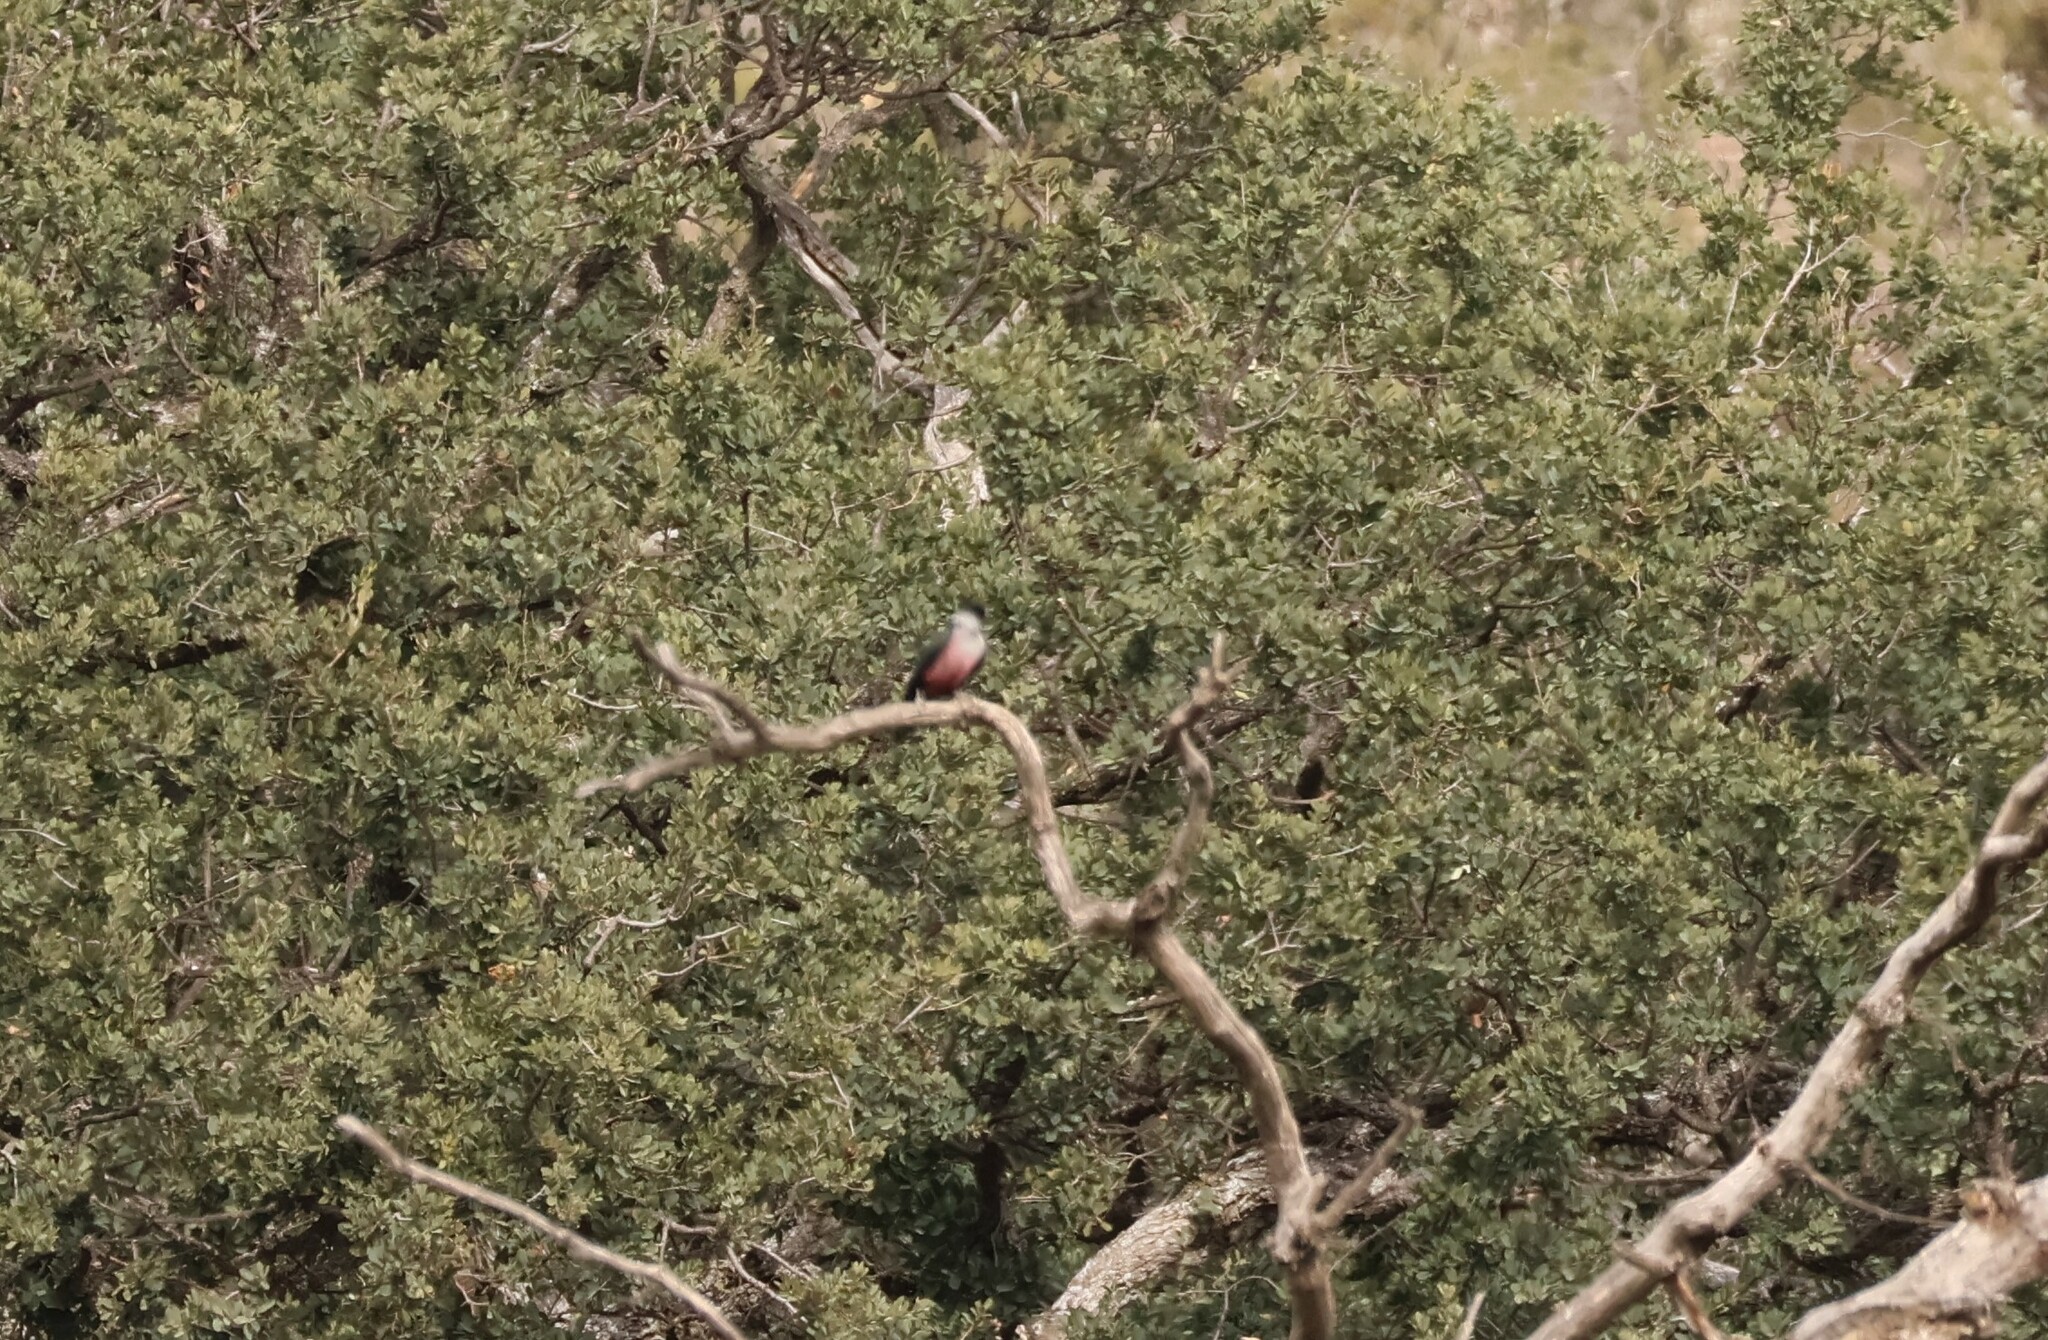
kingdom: Animalia
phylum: Chordata
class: Aves
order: Piciformes
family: Picidae
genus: Melanerpes
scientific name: Melanerpes lewis
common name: Lewis's woodpecker
